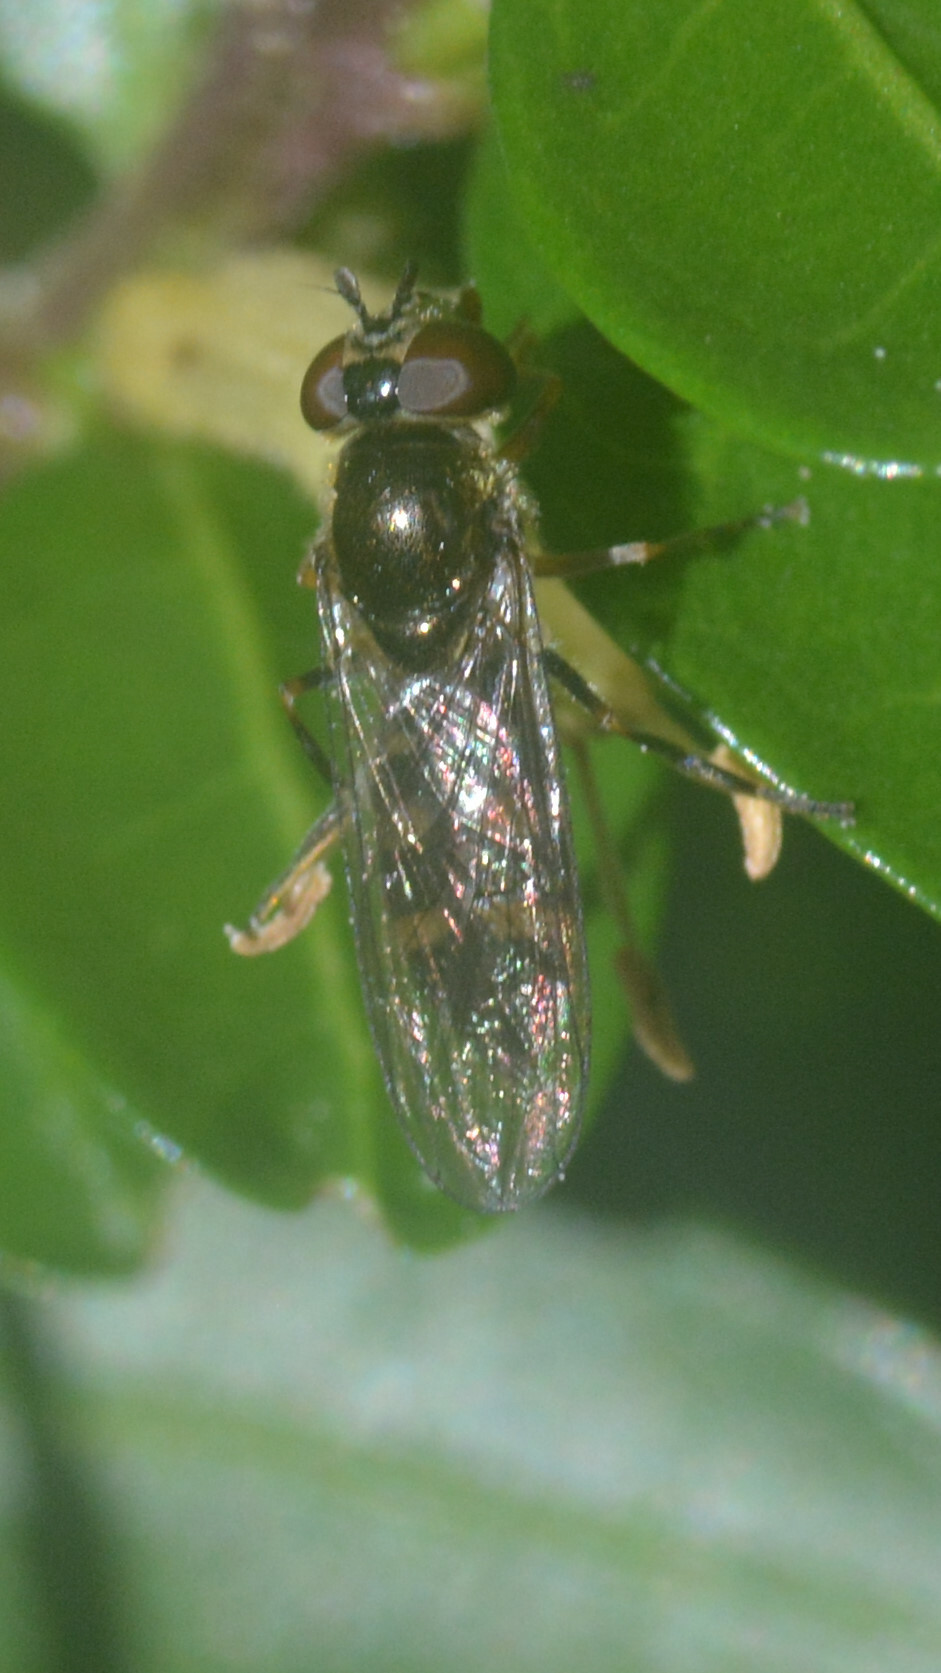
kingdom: Animalia
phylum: Arthropoda
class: Insecta
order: Diptera
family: Syrphidae
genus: Platycheirus
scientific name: Platycheirus
